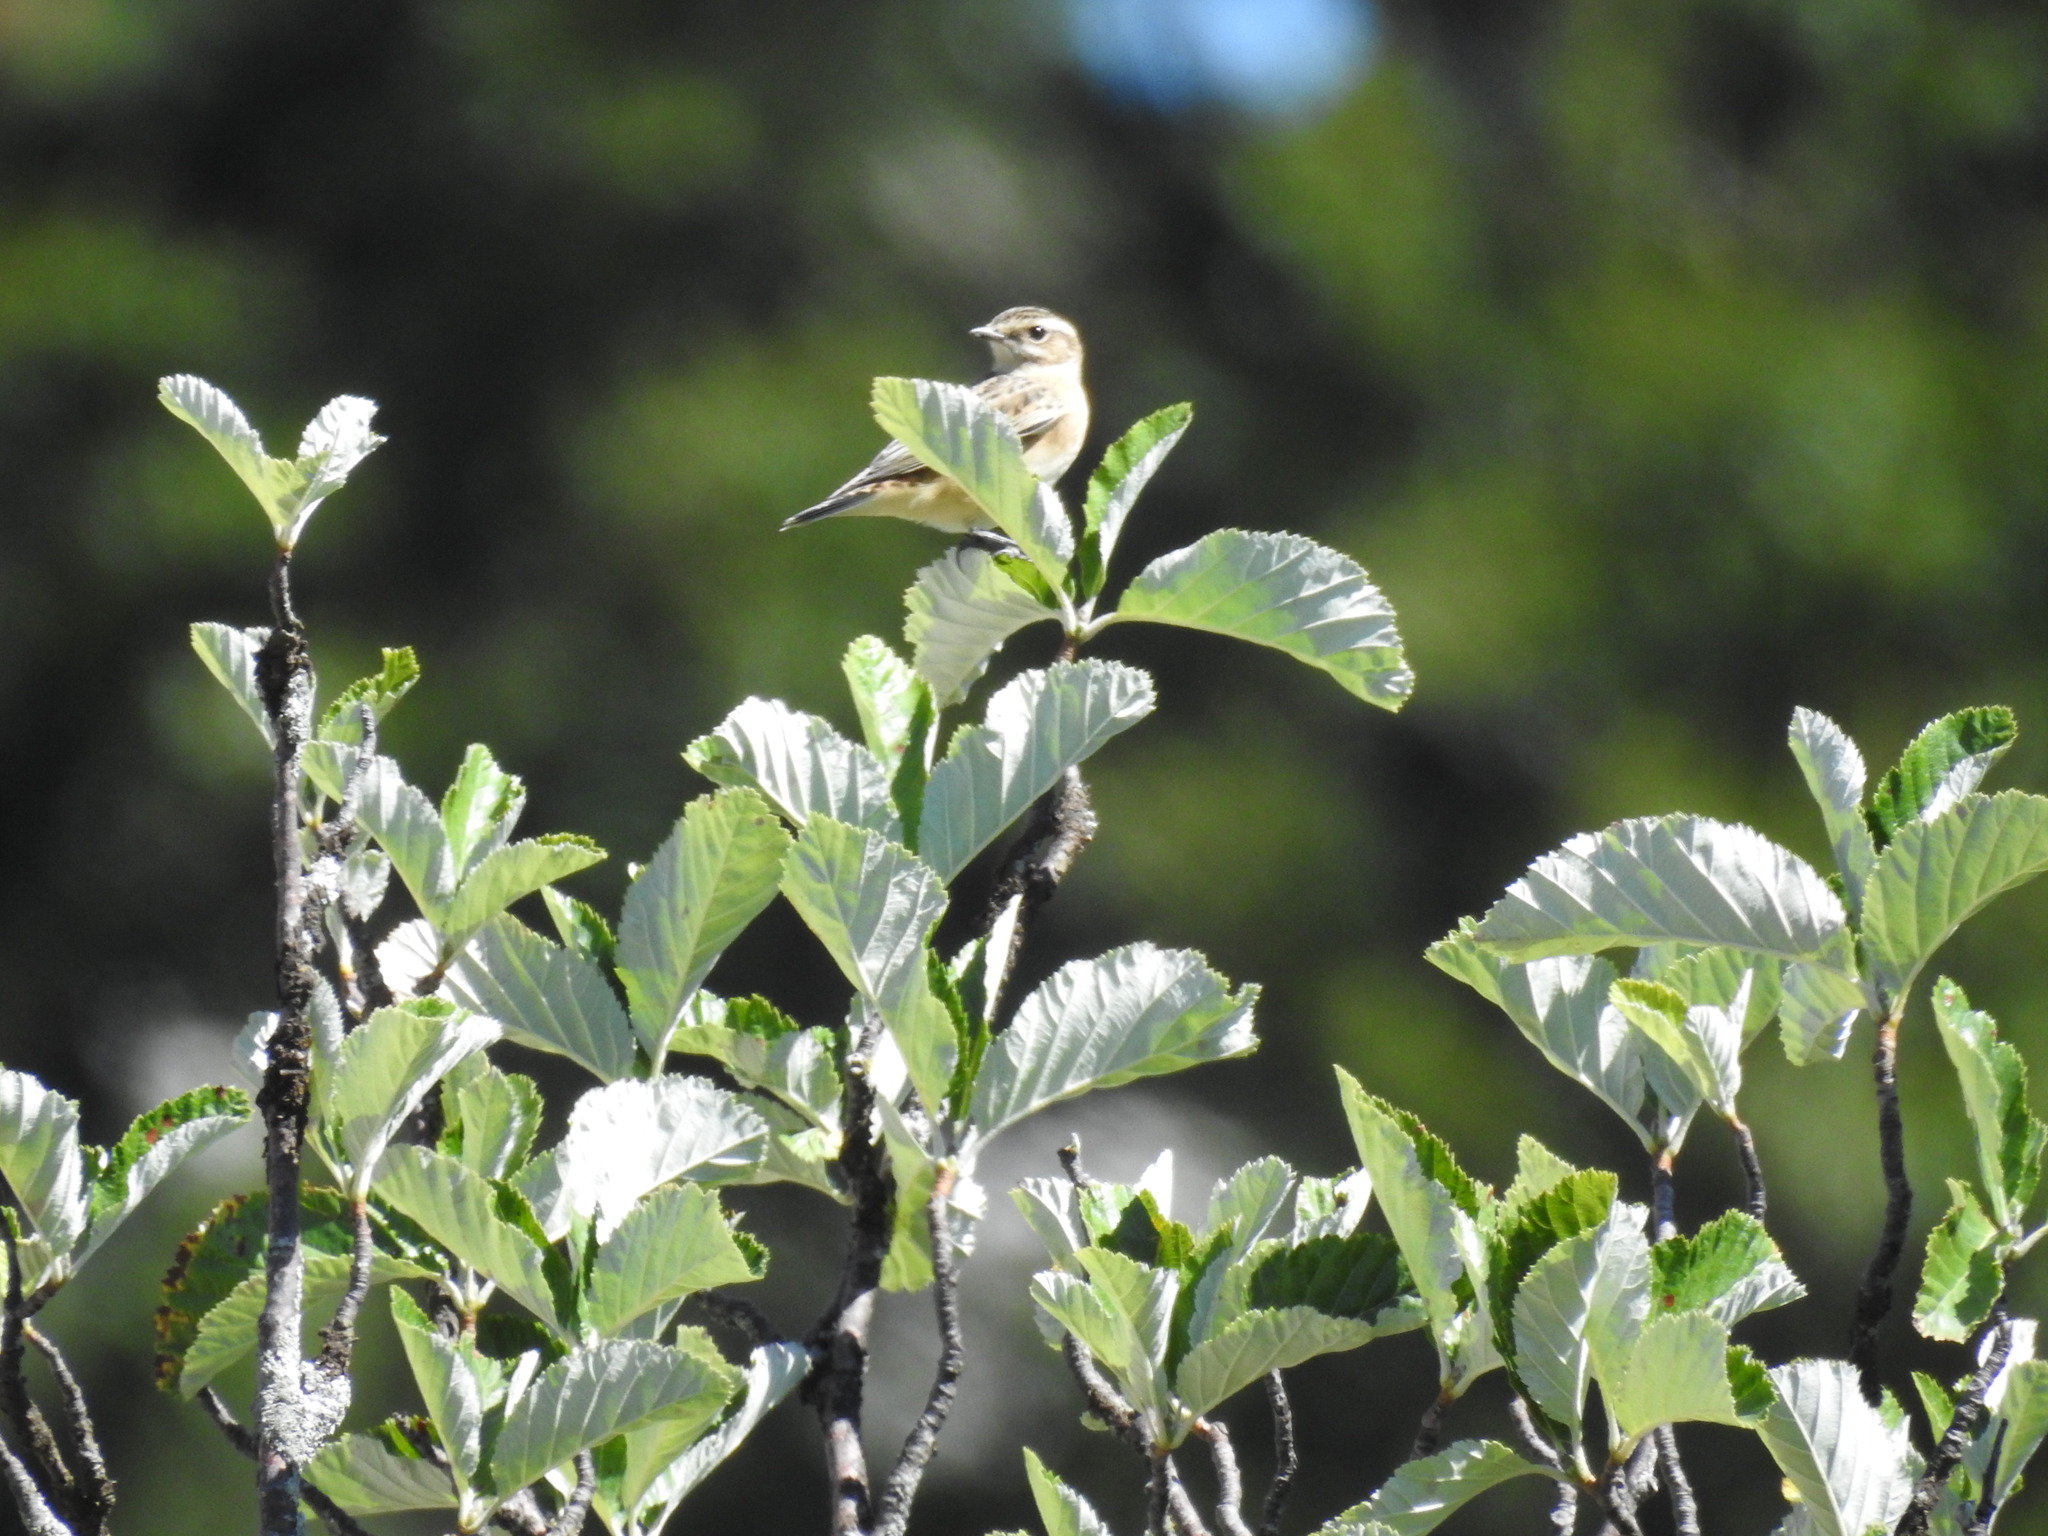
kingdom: Animalia
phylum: Chordata
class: Aves
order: Passeriformes
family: Muscicapidae
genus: Saxicola
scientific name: Saxicola rubetra
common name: Whinchat
